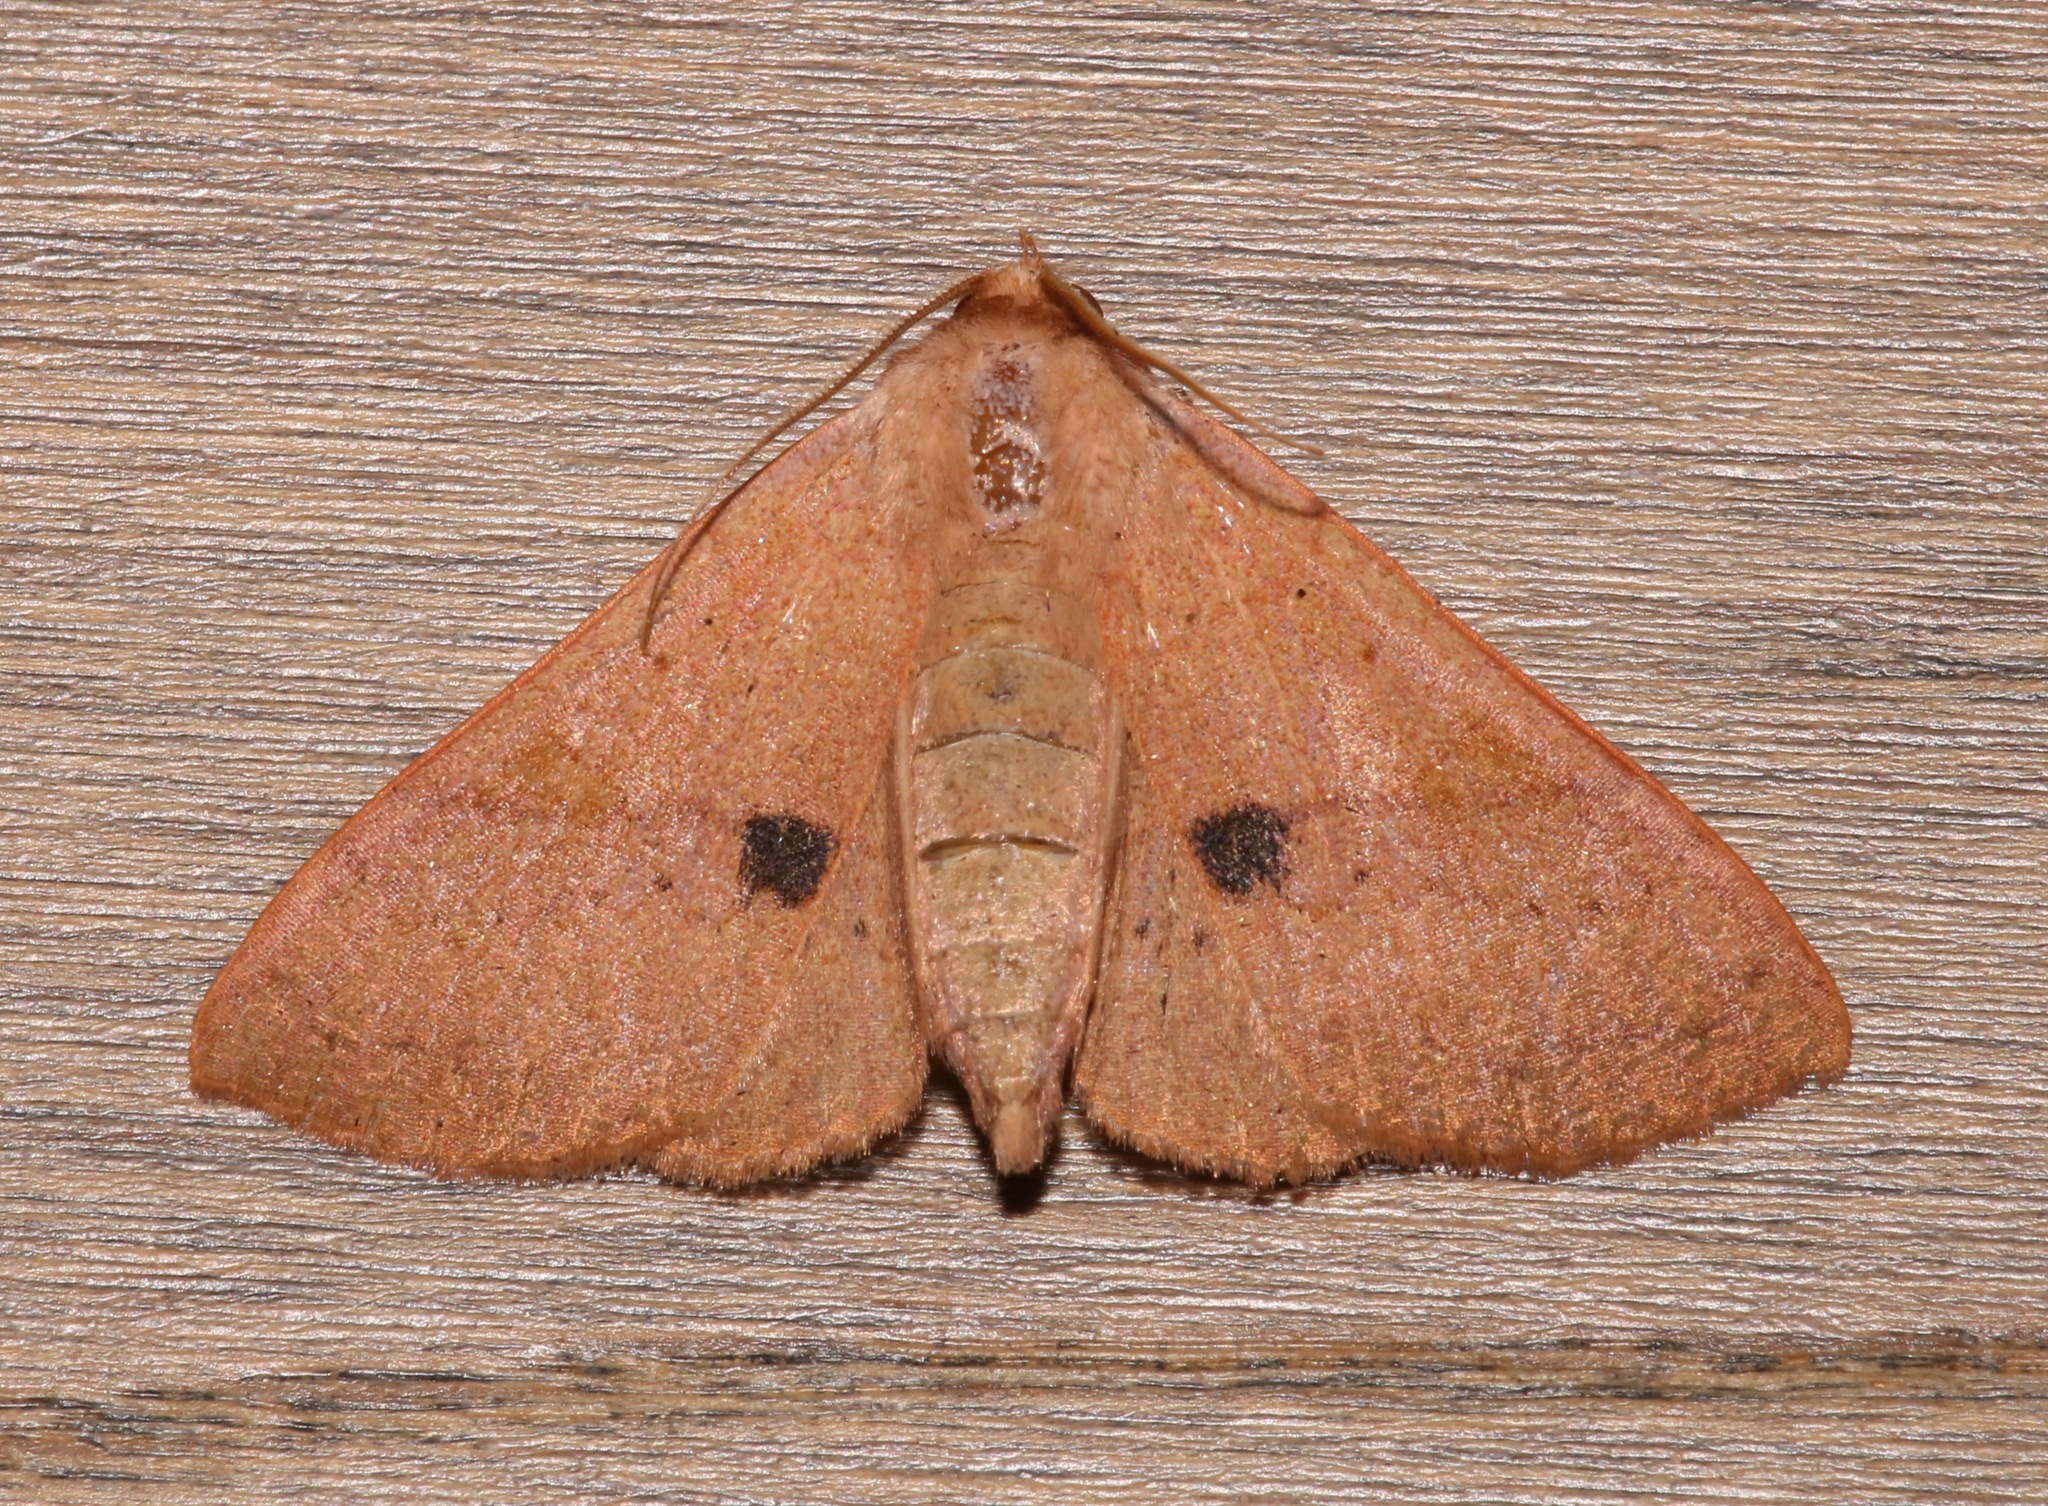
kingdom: Animalia
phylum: Arthropoda
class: Insecta
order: Lepidoptera
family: Erebidae
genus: Panopoda
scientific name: Panopoda rigida
